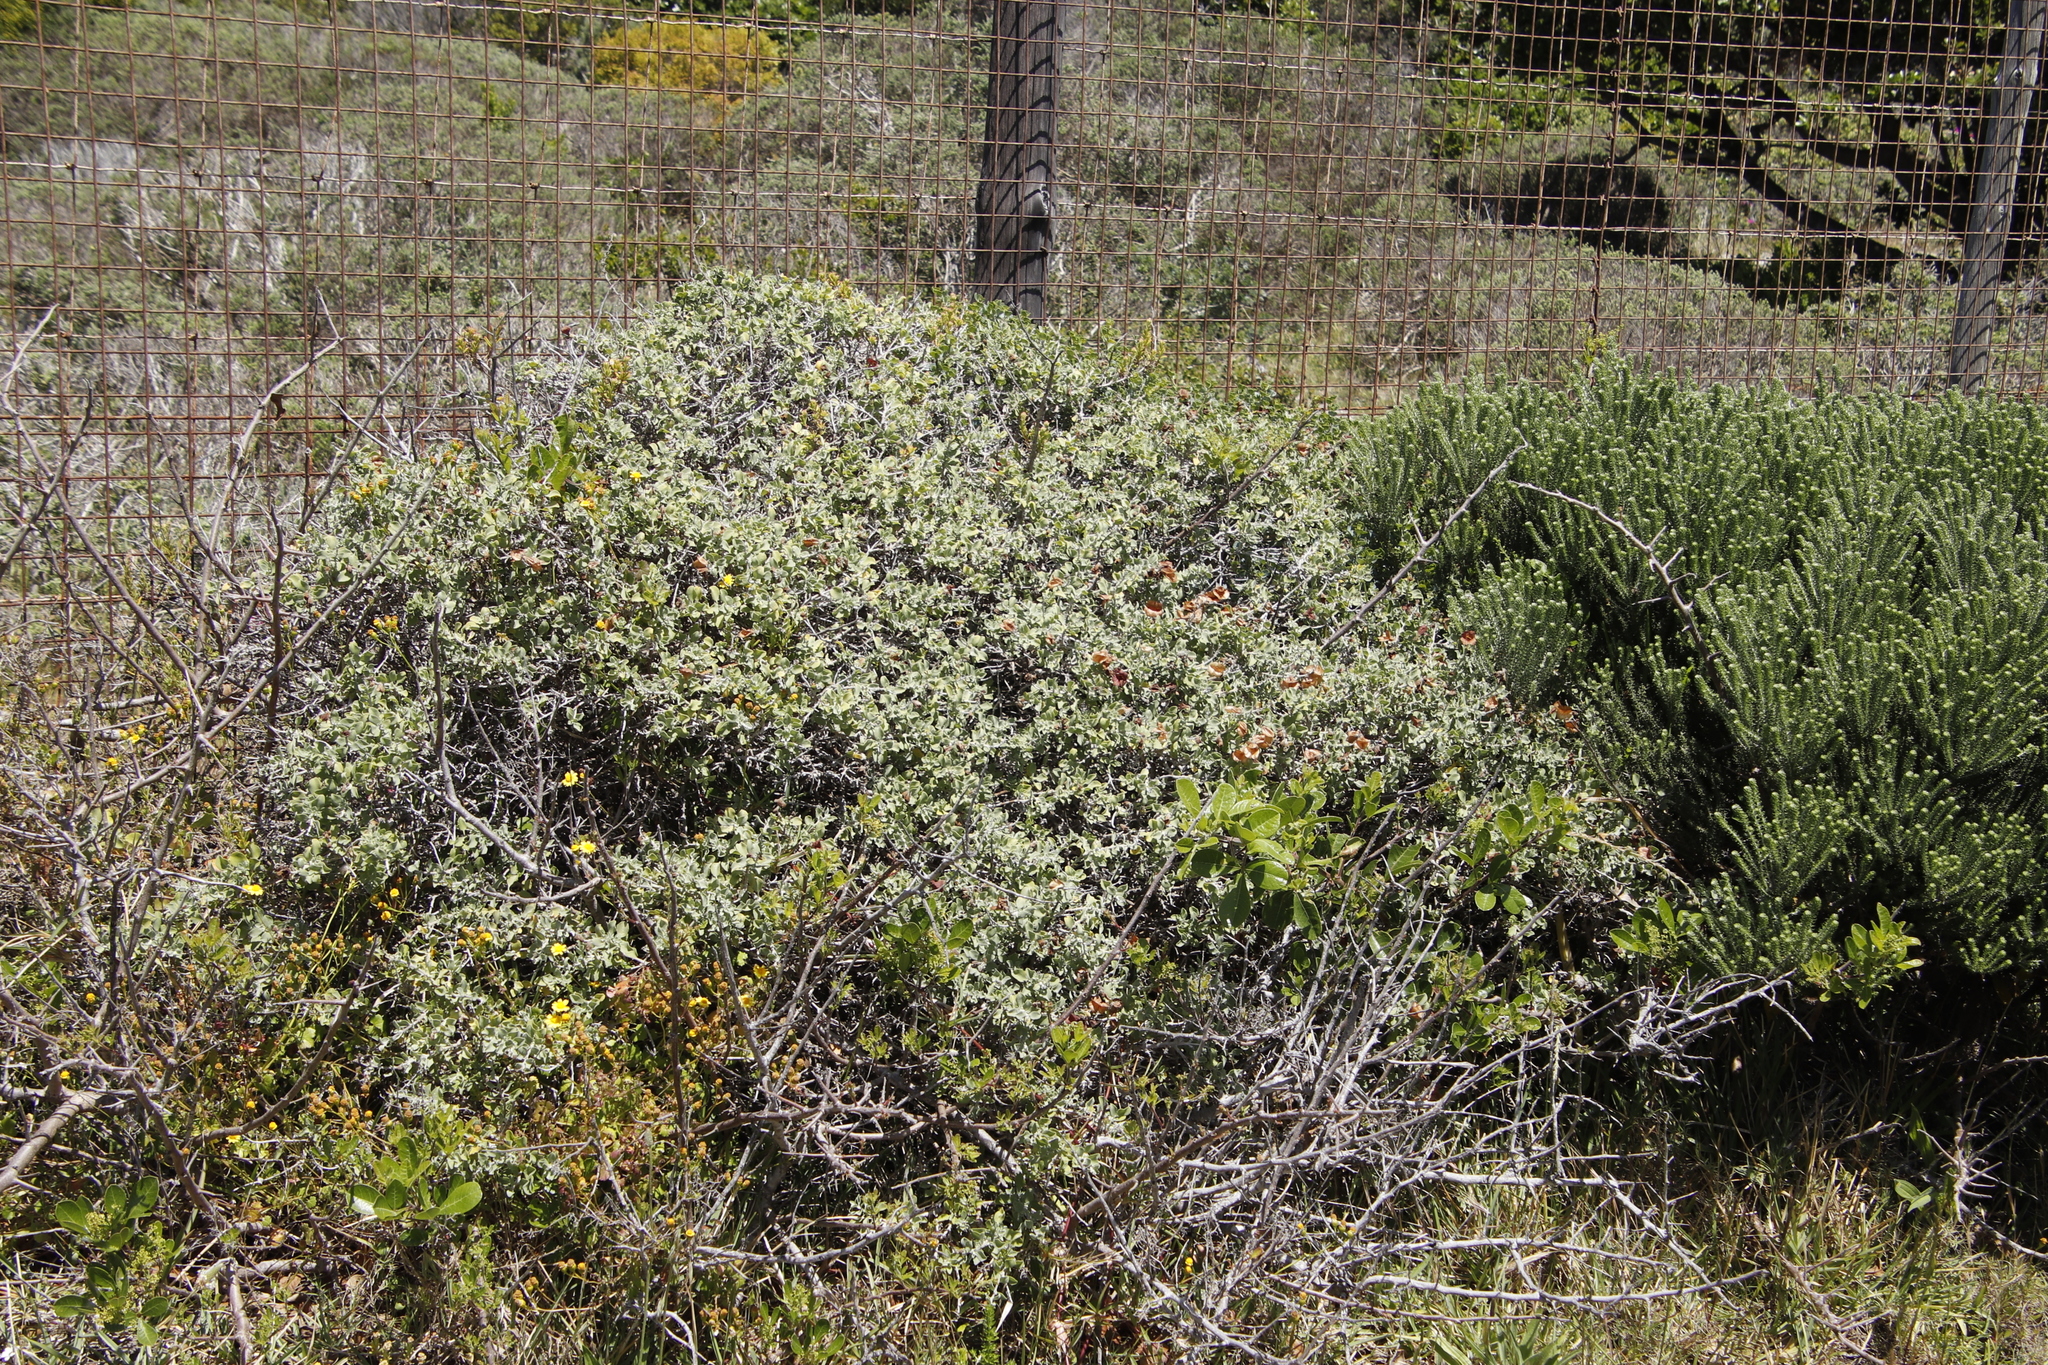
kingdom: Plantae
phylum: Tracheophyta
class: Magnoliopsida
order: Lamiales
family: Lamiaceae
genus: Salvia
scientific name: Salvia aurea
